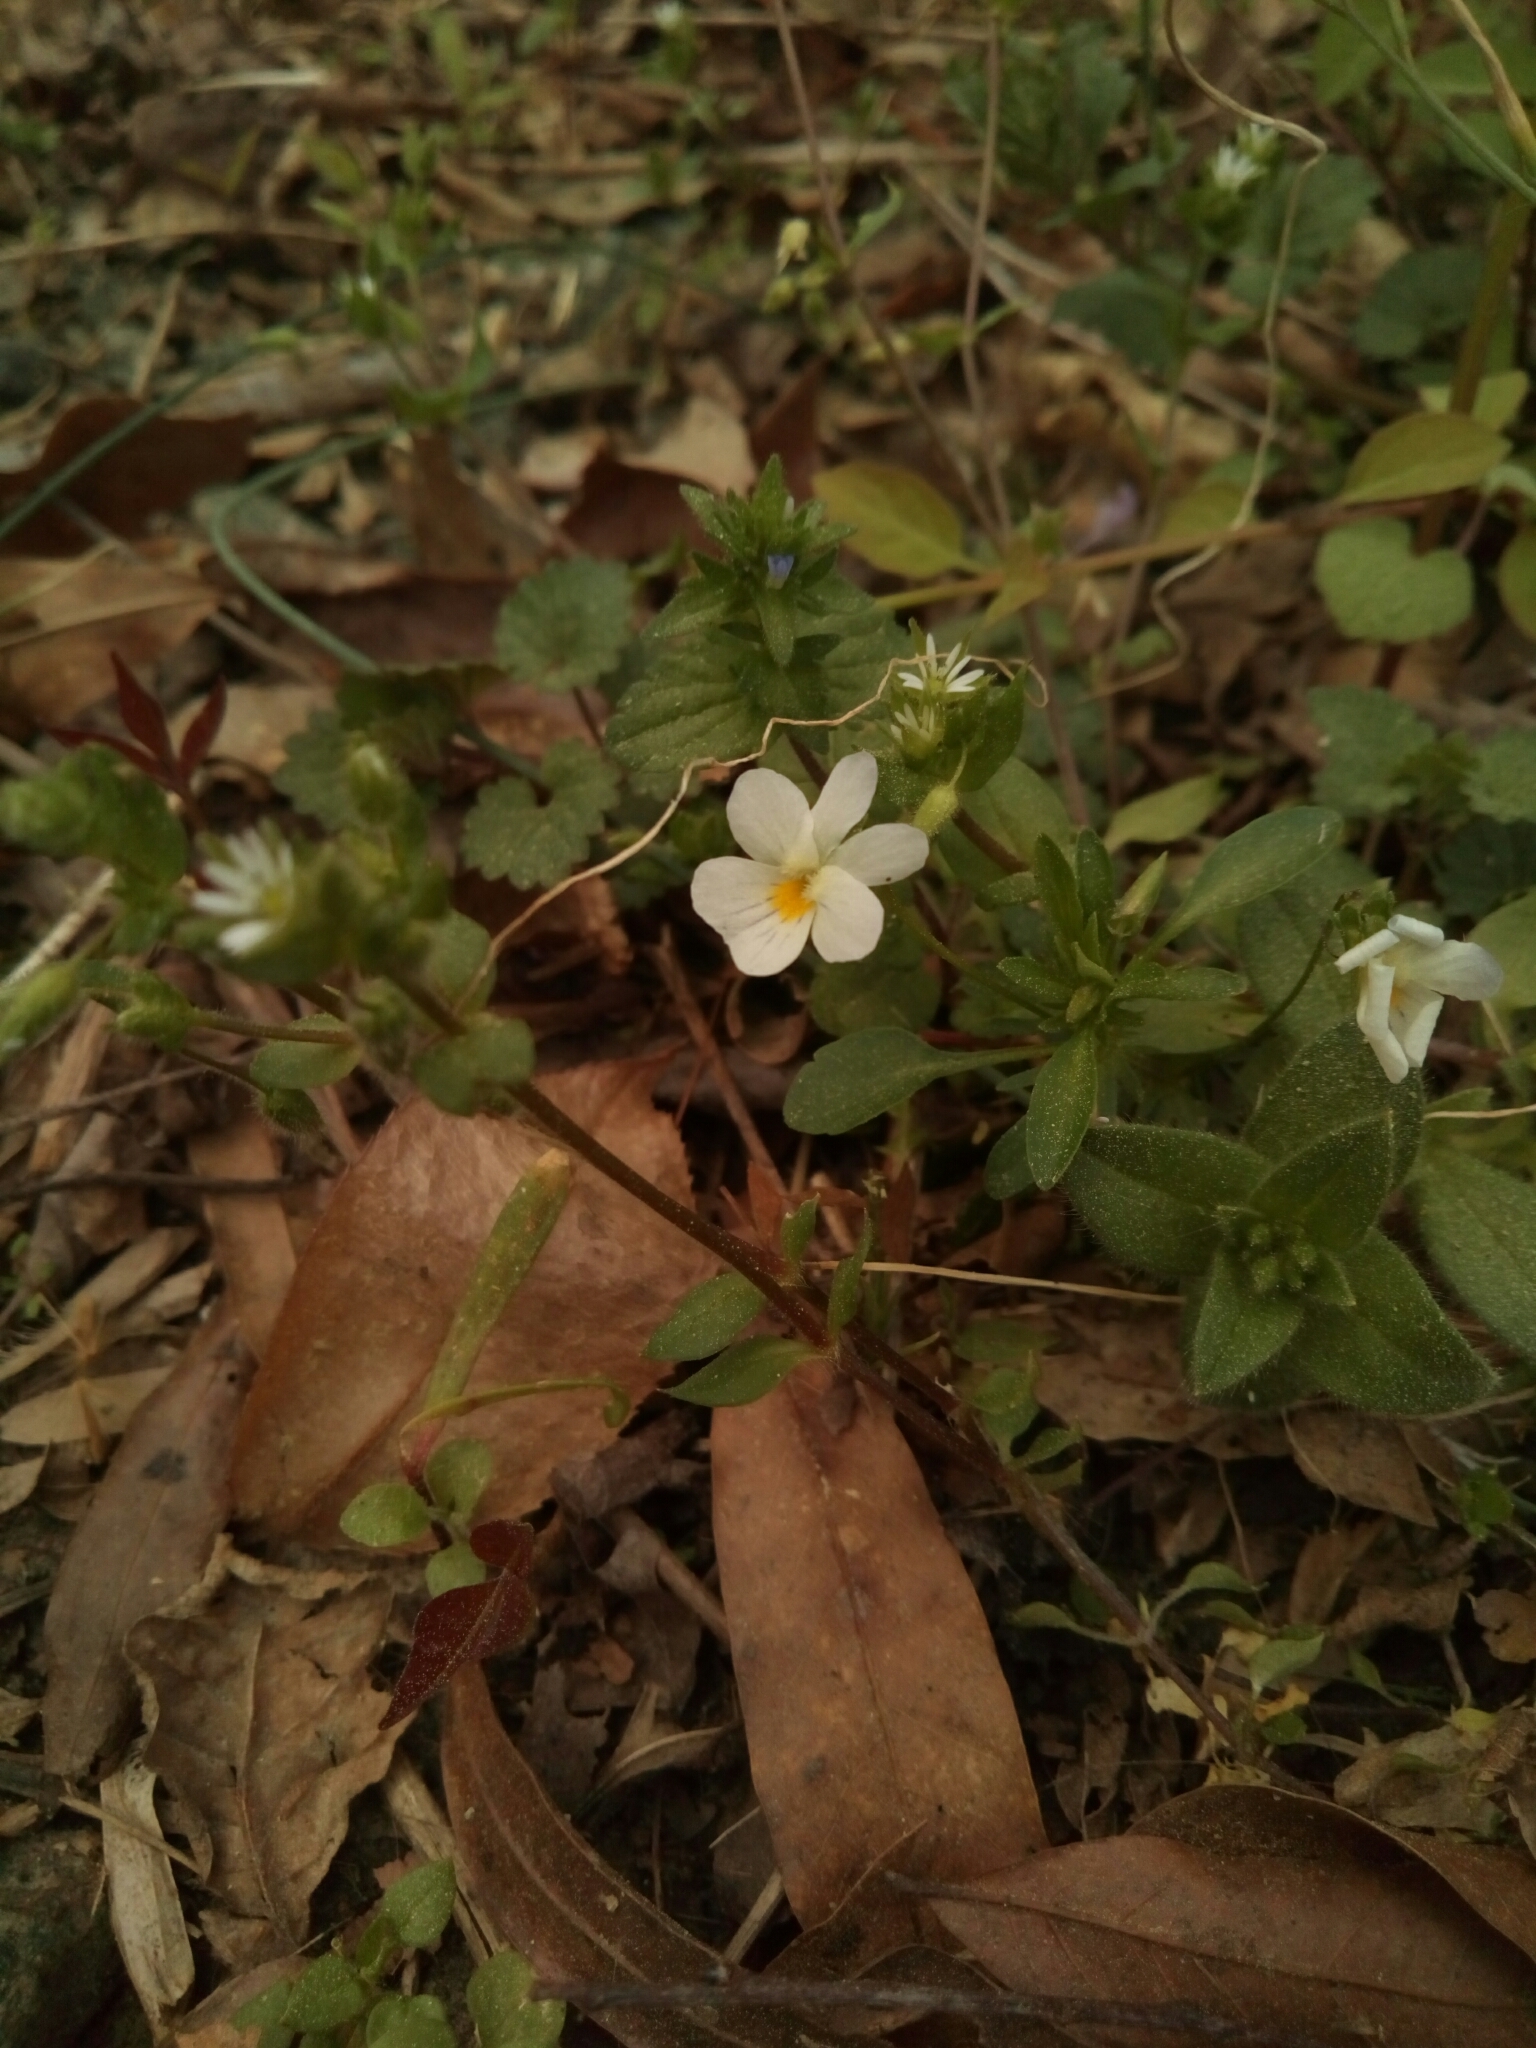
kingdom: Plantae
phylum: Tracheophyta
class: Magnoliopsida
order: Malpighiales
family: Violaceae
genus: Viola
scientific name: Viola rafinesquei
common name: American field pansy
